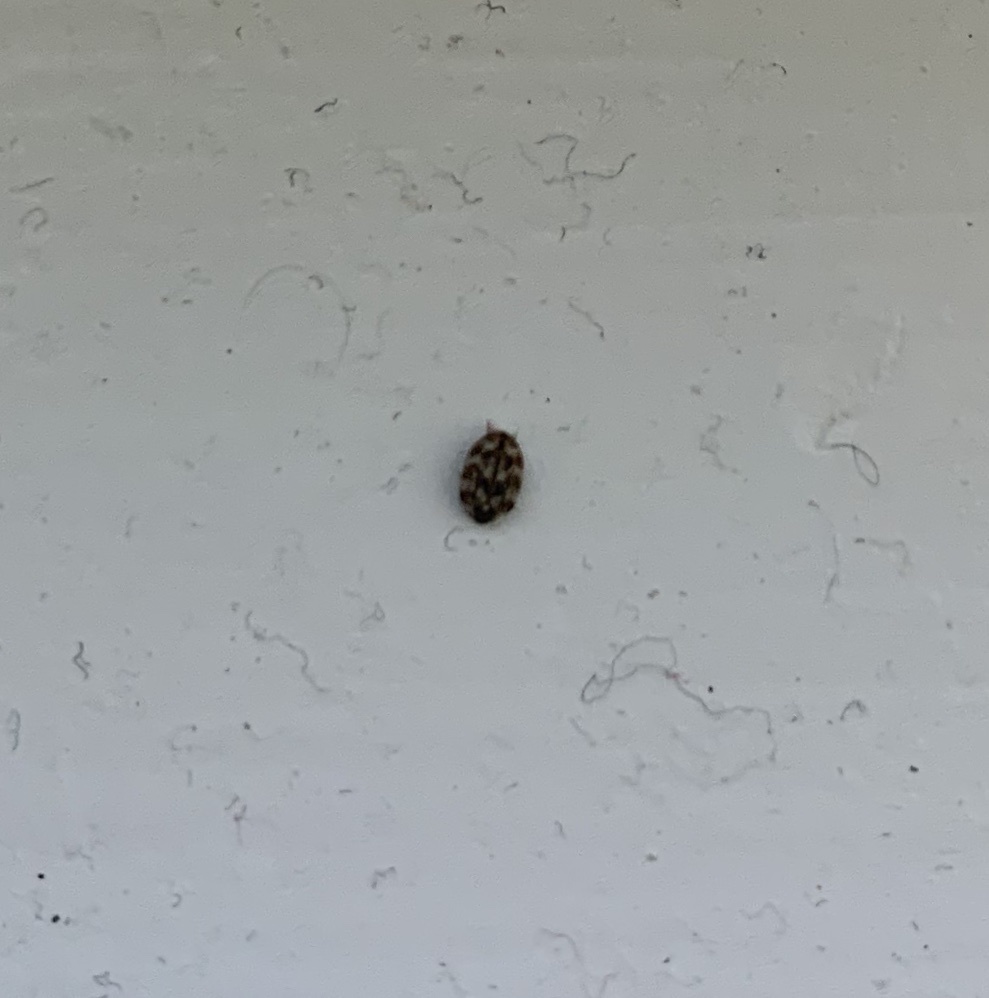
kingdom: Animalia
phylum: Arthropoda
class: Insecta
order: Coleoptera
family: Dermestidae
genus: Anthrenus
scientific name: Anthrenus verbasci
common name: Varied carpet beetle
